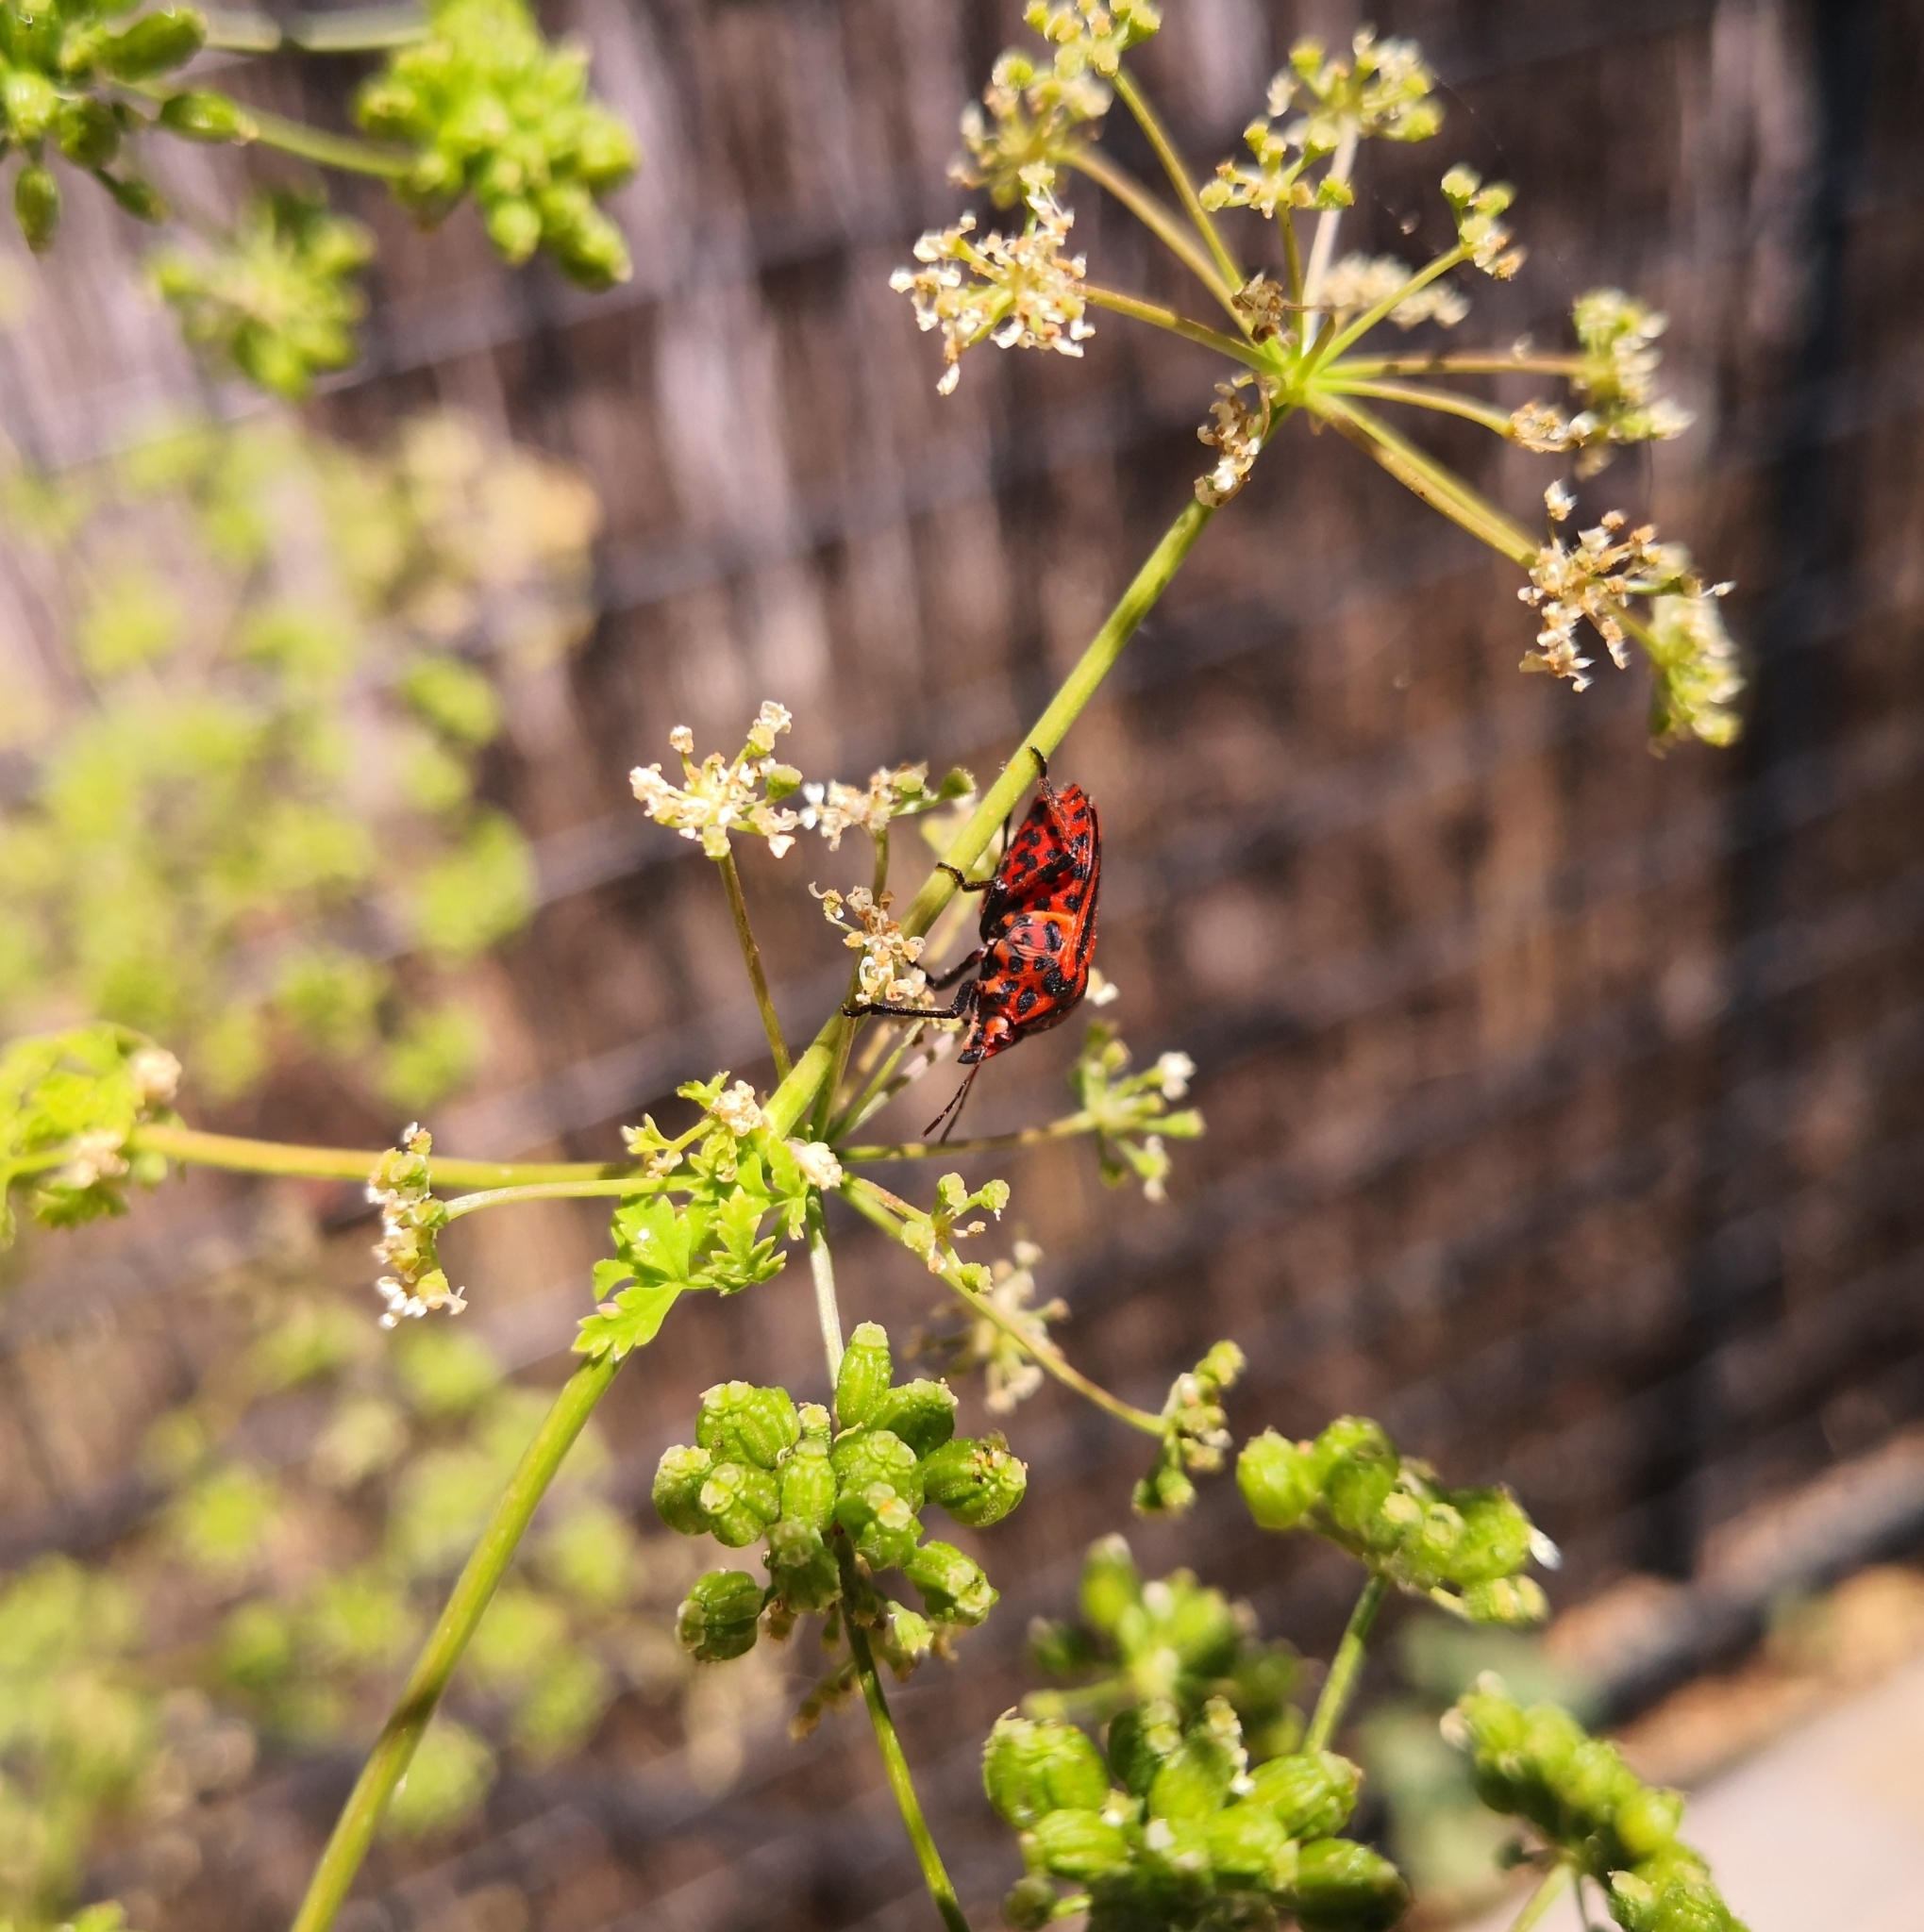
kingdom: Animalia
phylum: Arthropoda
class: Insecta
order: Hemiptera
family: Pentatomidae
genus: Graphosoma
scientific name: Graphosoma italicum
